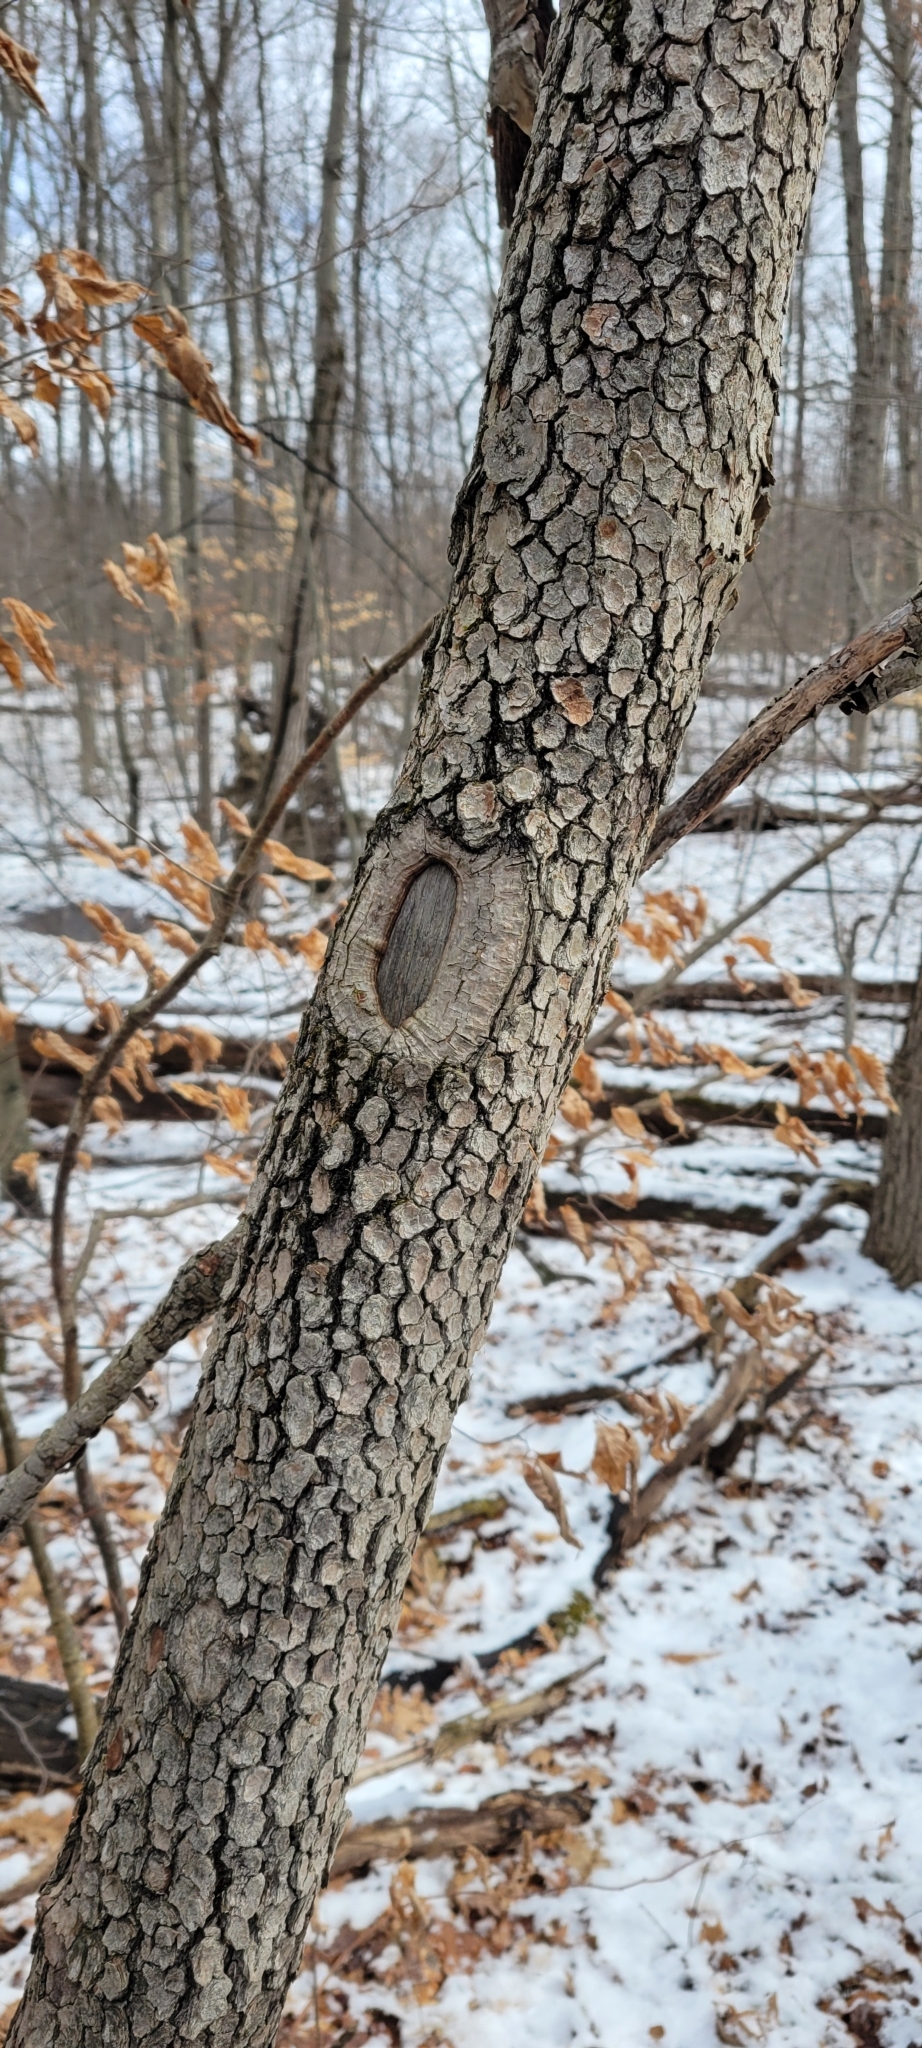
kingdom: Plantae
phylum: Tracheophyta
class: Magnoliopsida
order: Cornales
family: Cornaceae
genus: Cornus
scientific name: Cornus florida
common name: Flowering dogwood
